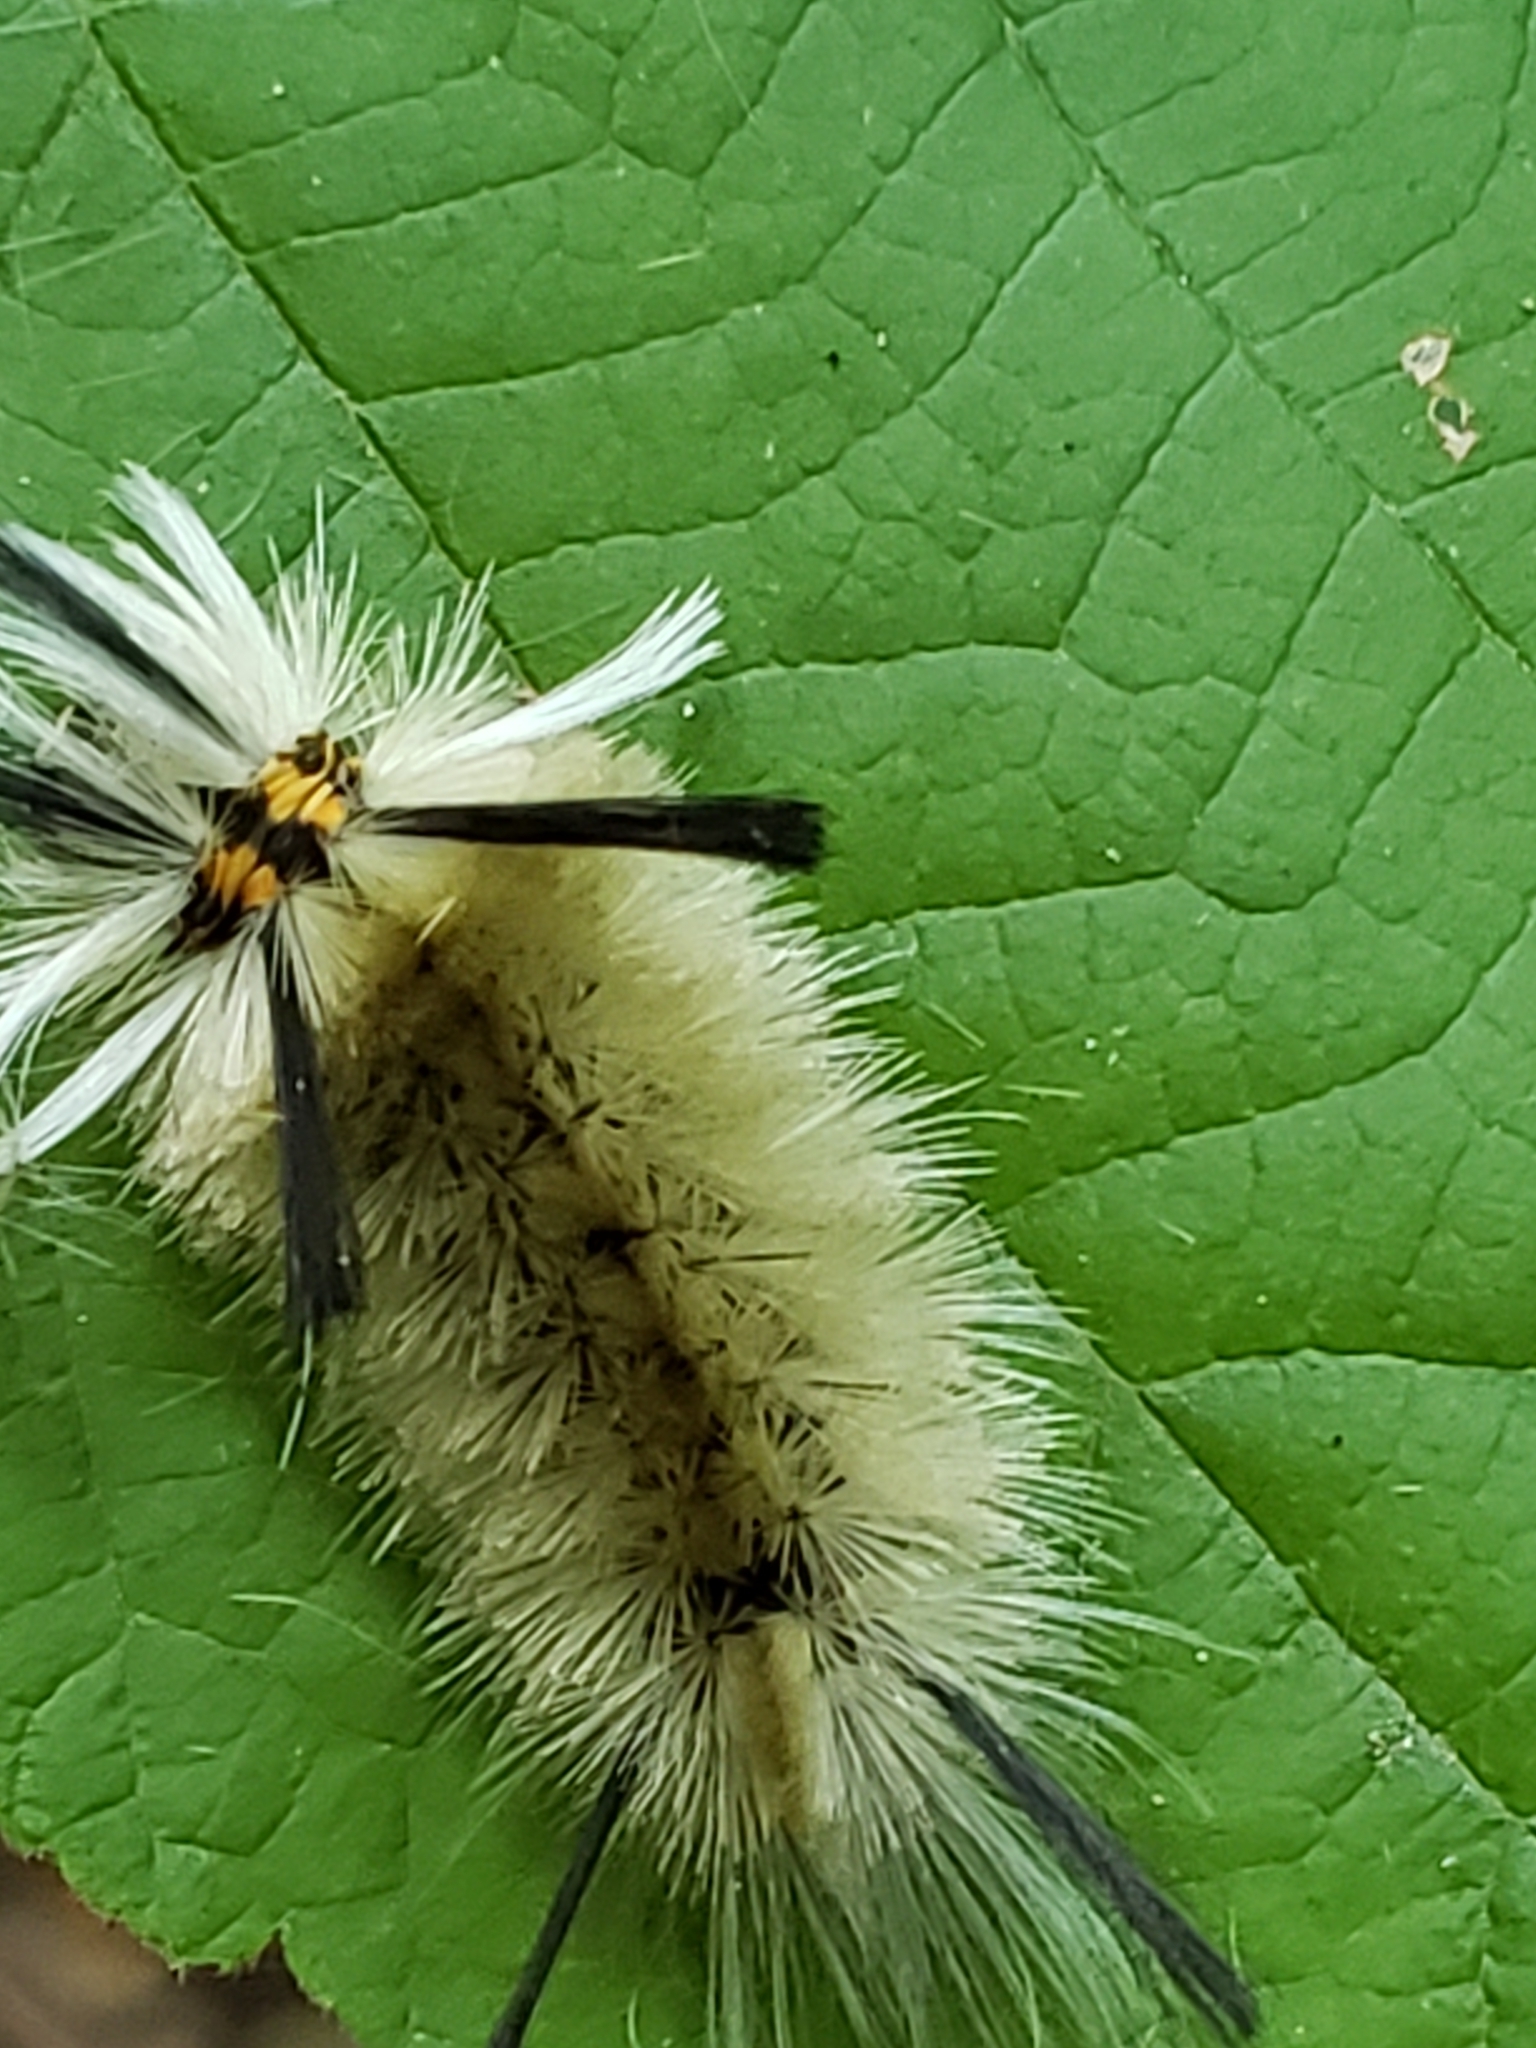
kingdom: Animalia
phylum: Arthropoda
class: Insecta
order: Lepidoptera
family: Erebidae
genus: Halysidota
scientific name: Halysidota tessellaris
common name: Banded tussock moth
